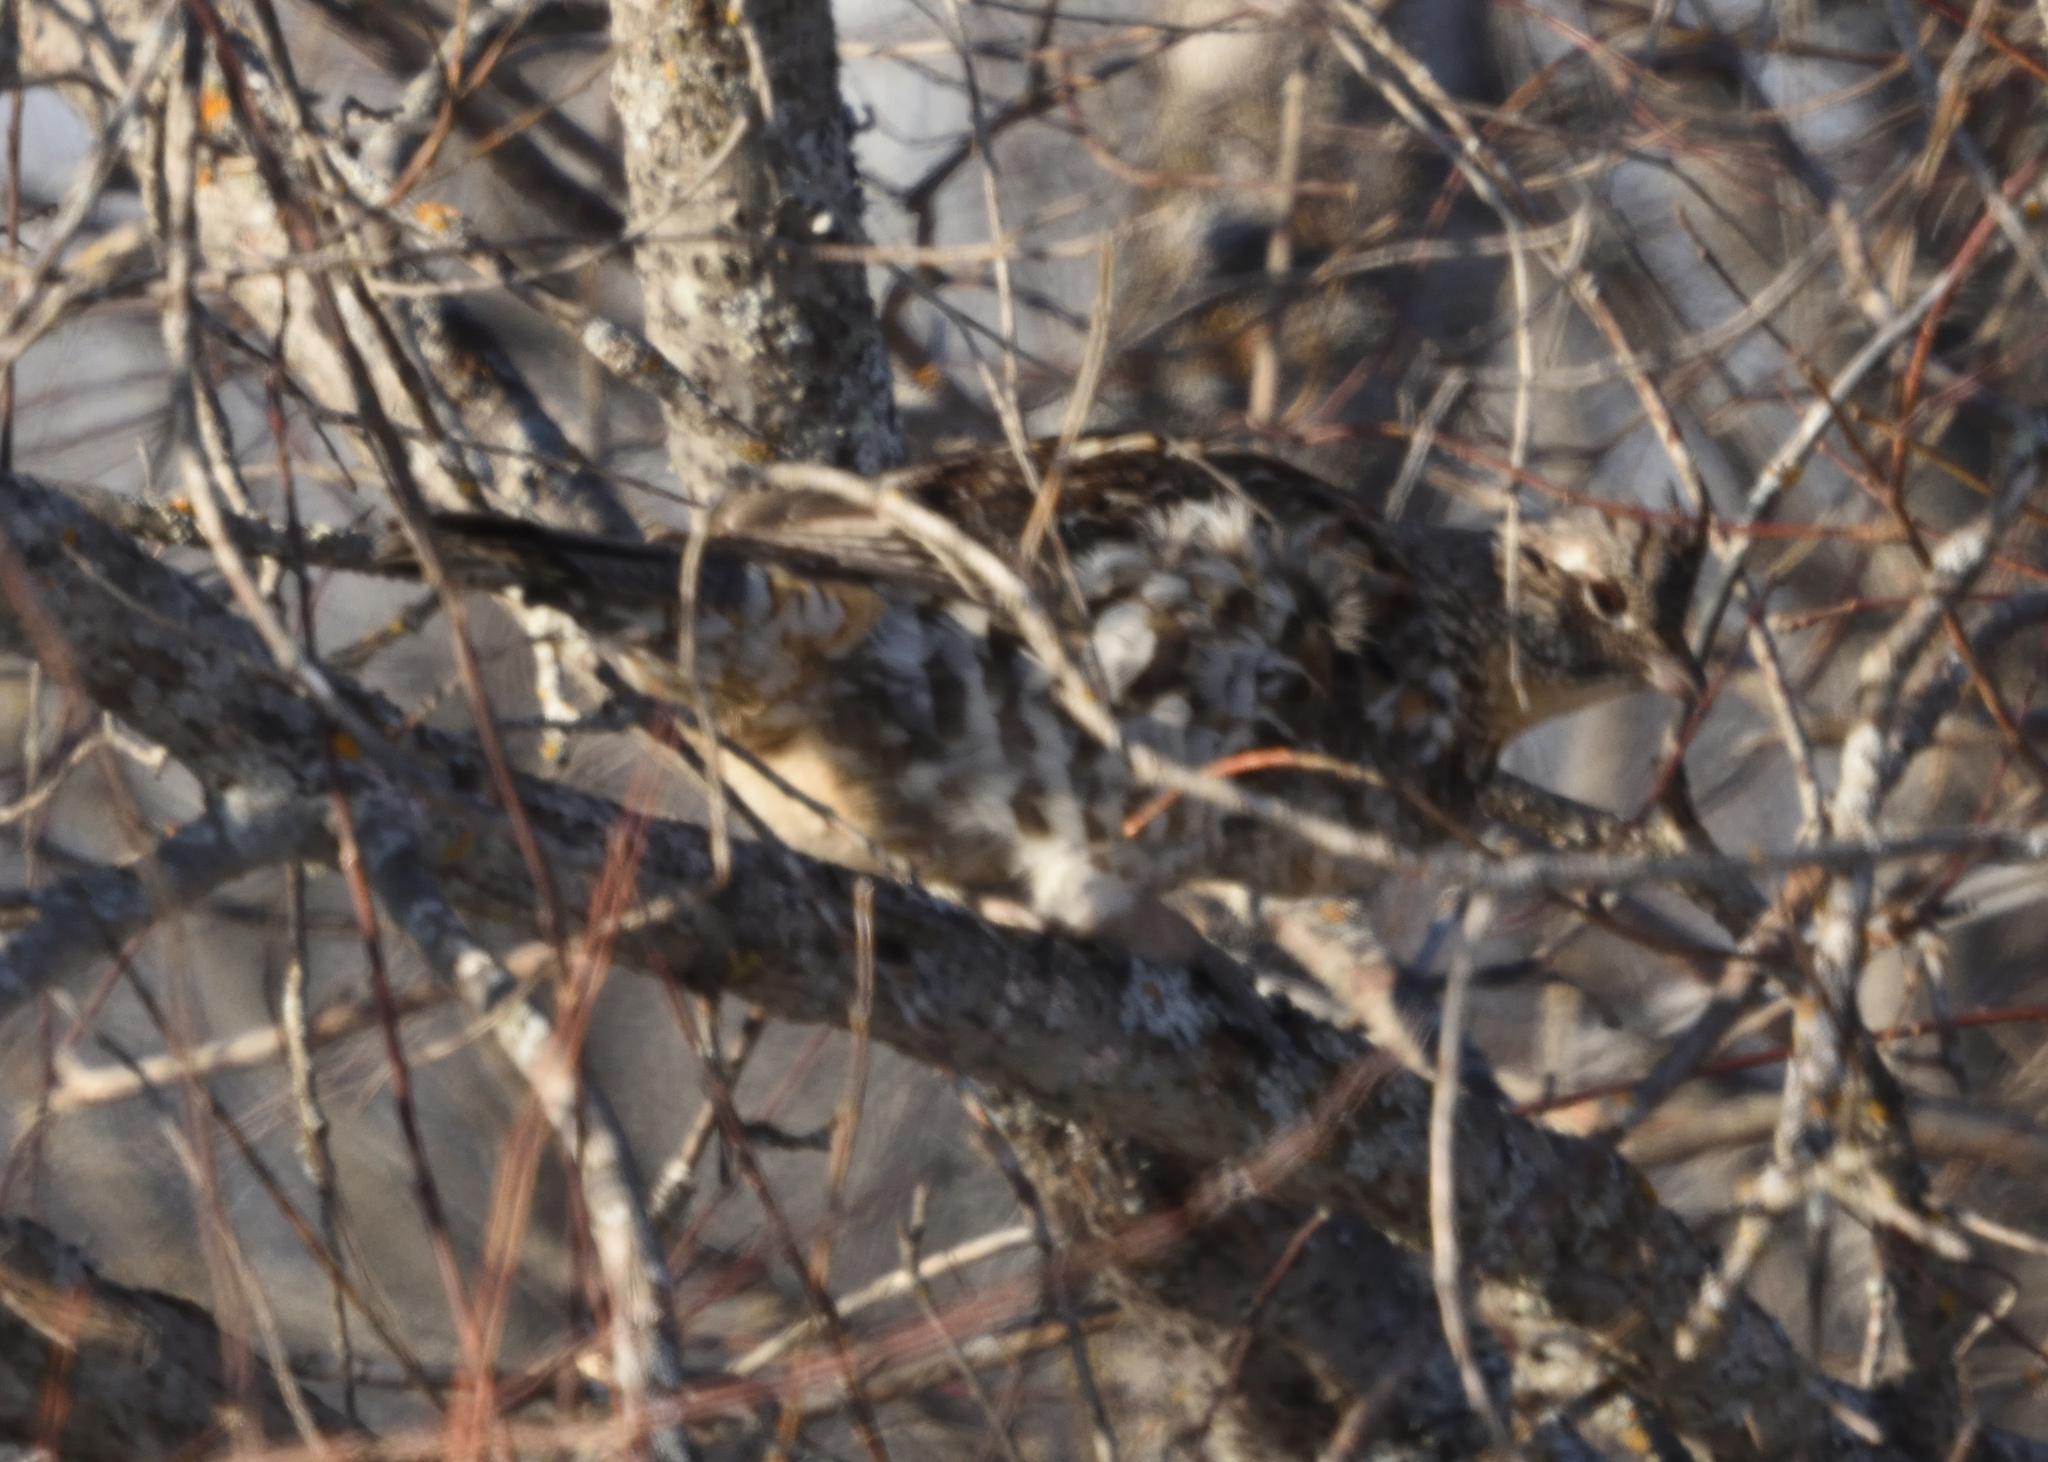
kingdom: Animalia
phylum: Chordata
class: Aves
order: Galliformes
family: Phasianidae
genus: Bonasa
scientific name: Bonasa umbellus
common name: Ruffed grouse
